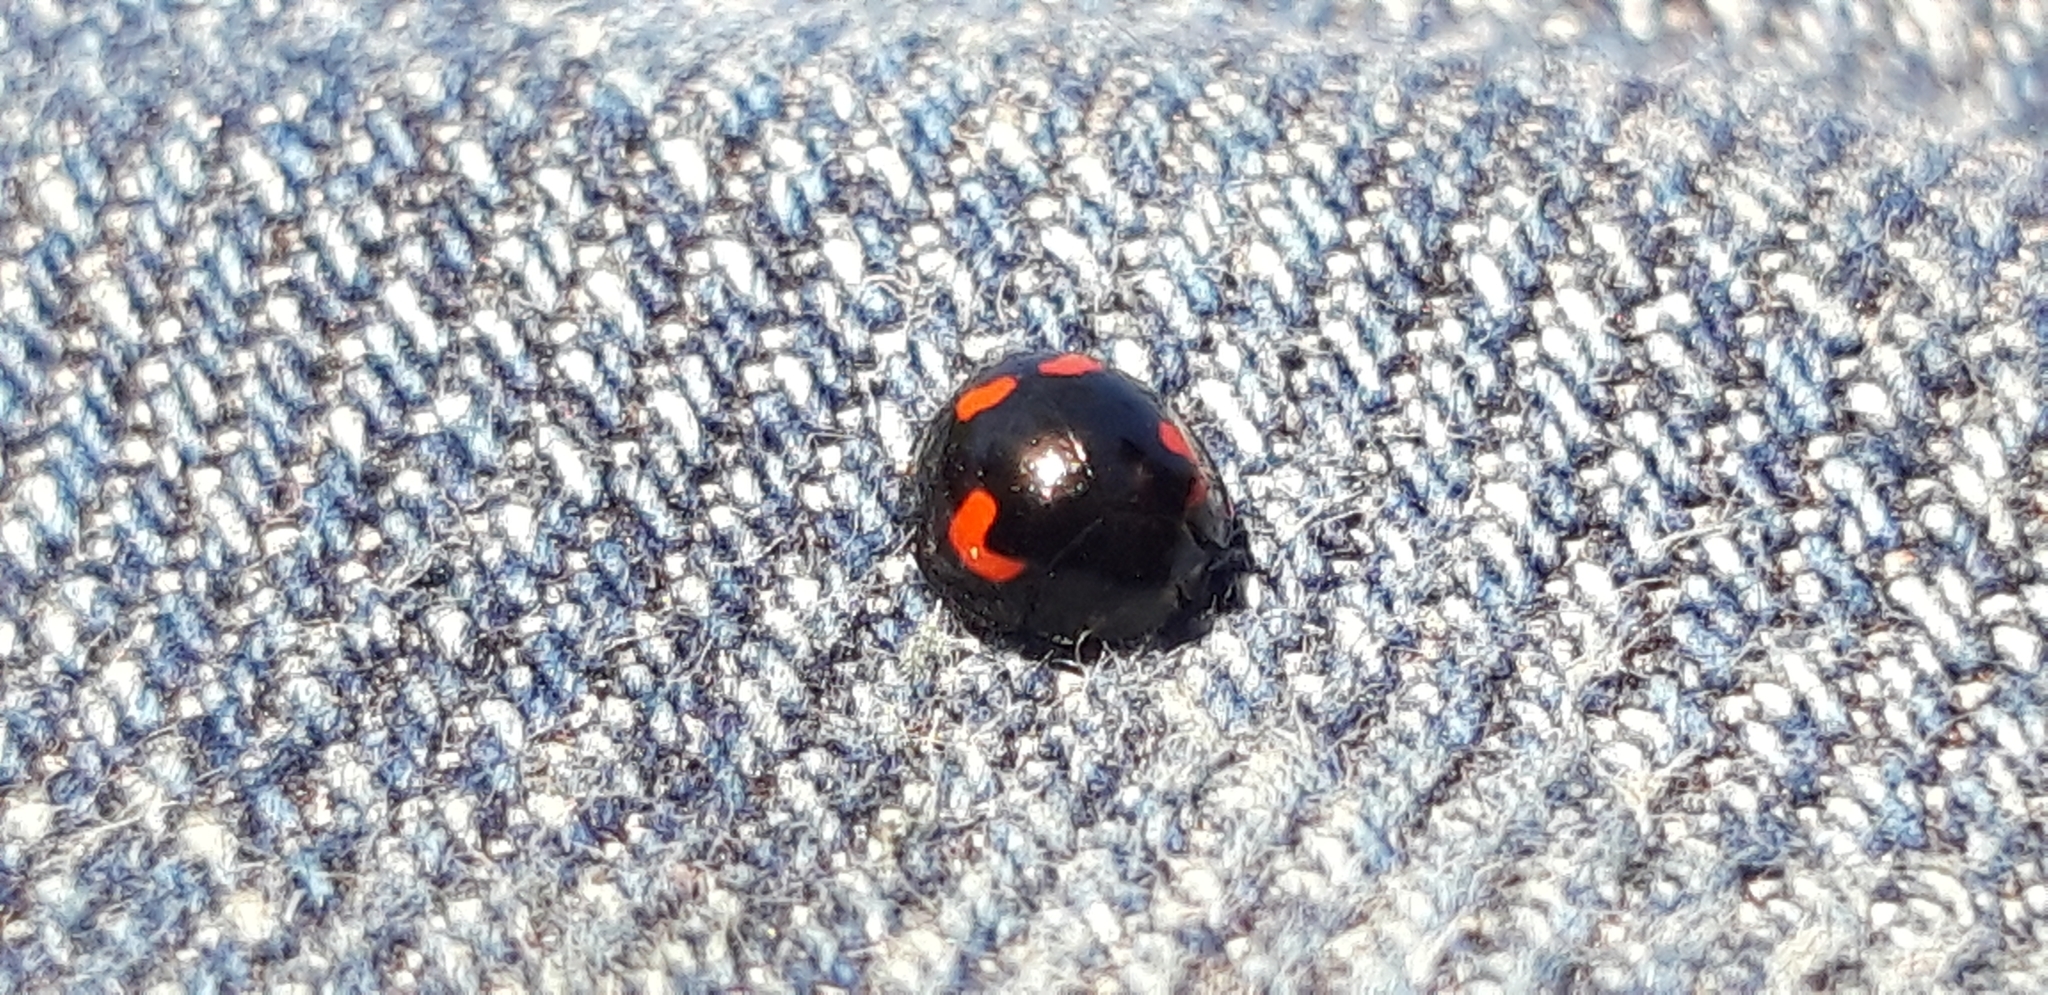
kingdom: Animalia
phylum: Arthropoda
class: Insecta
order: Coleoptera
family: Coccinellidae
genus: Brumus
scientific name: Brumus quadripustulatus
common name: Ladybird beetle
